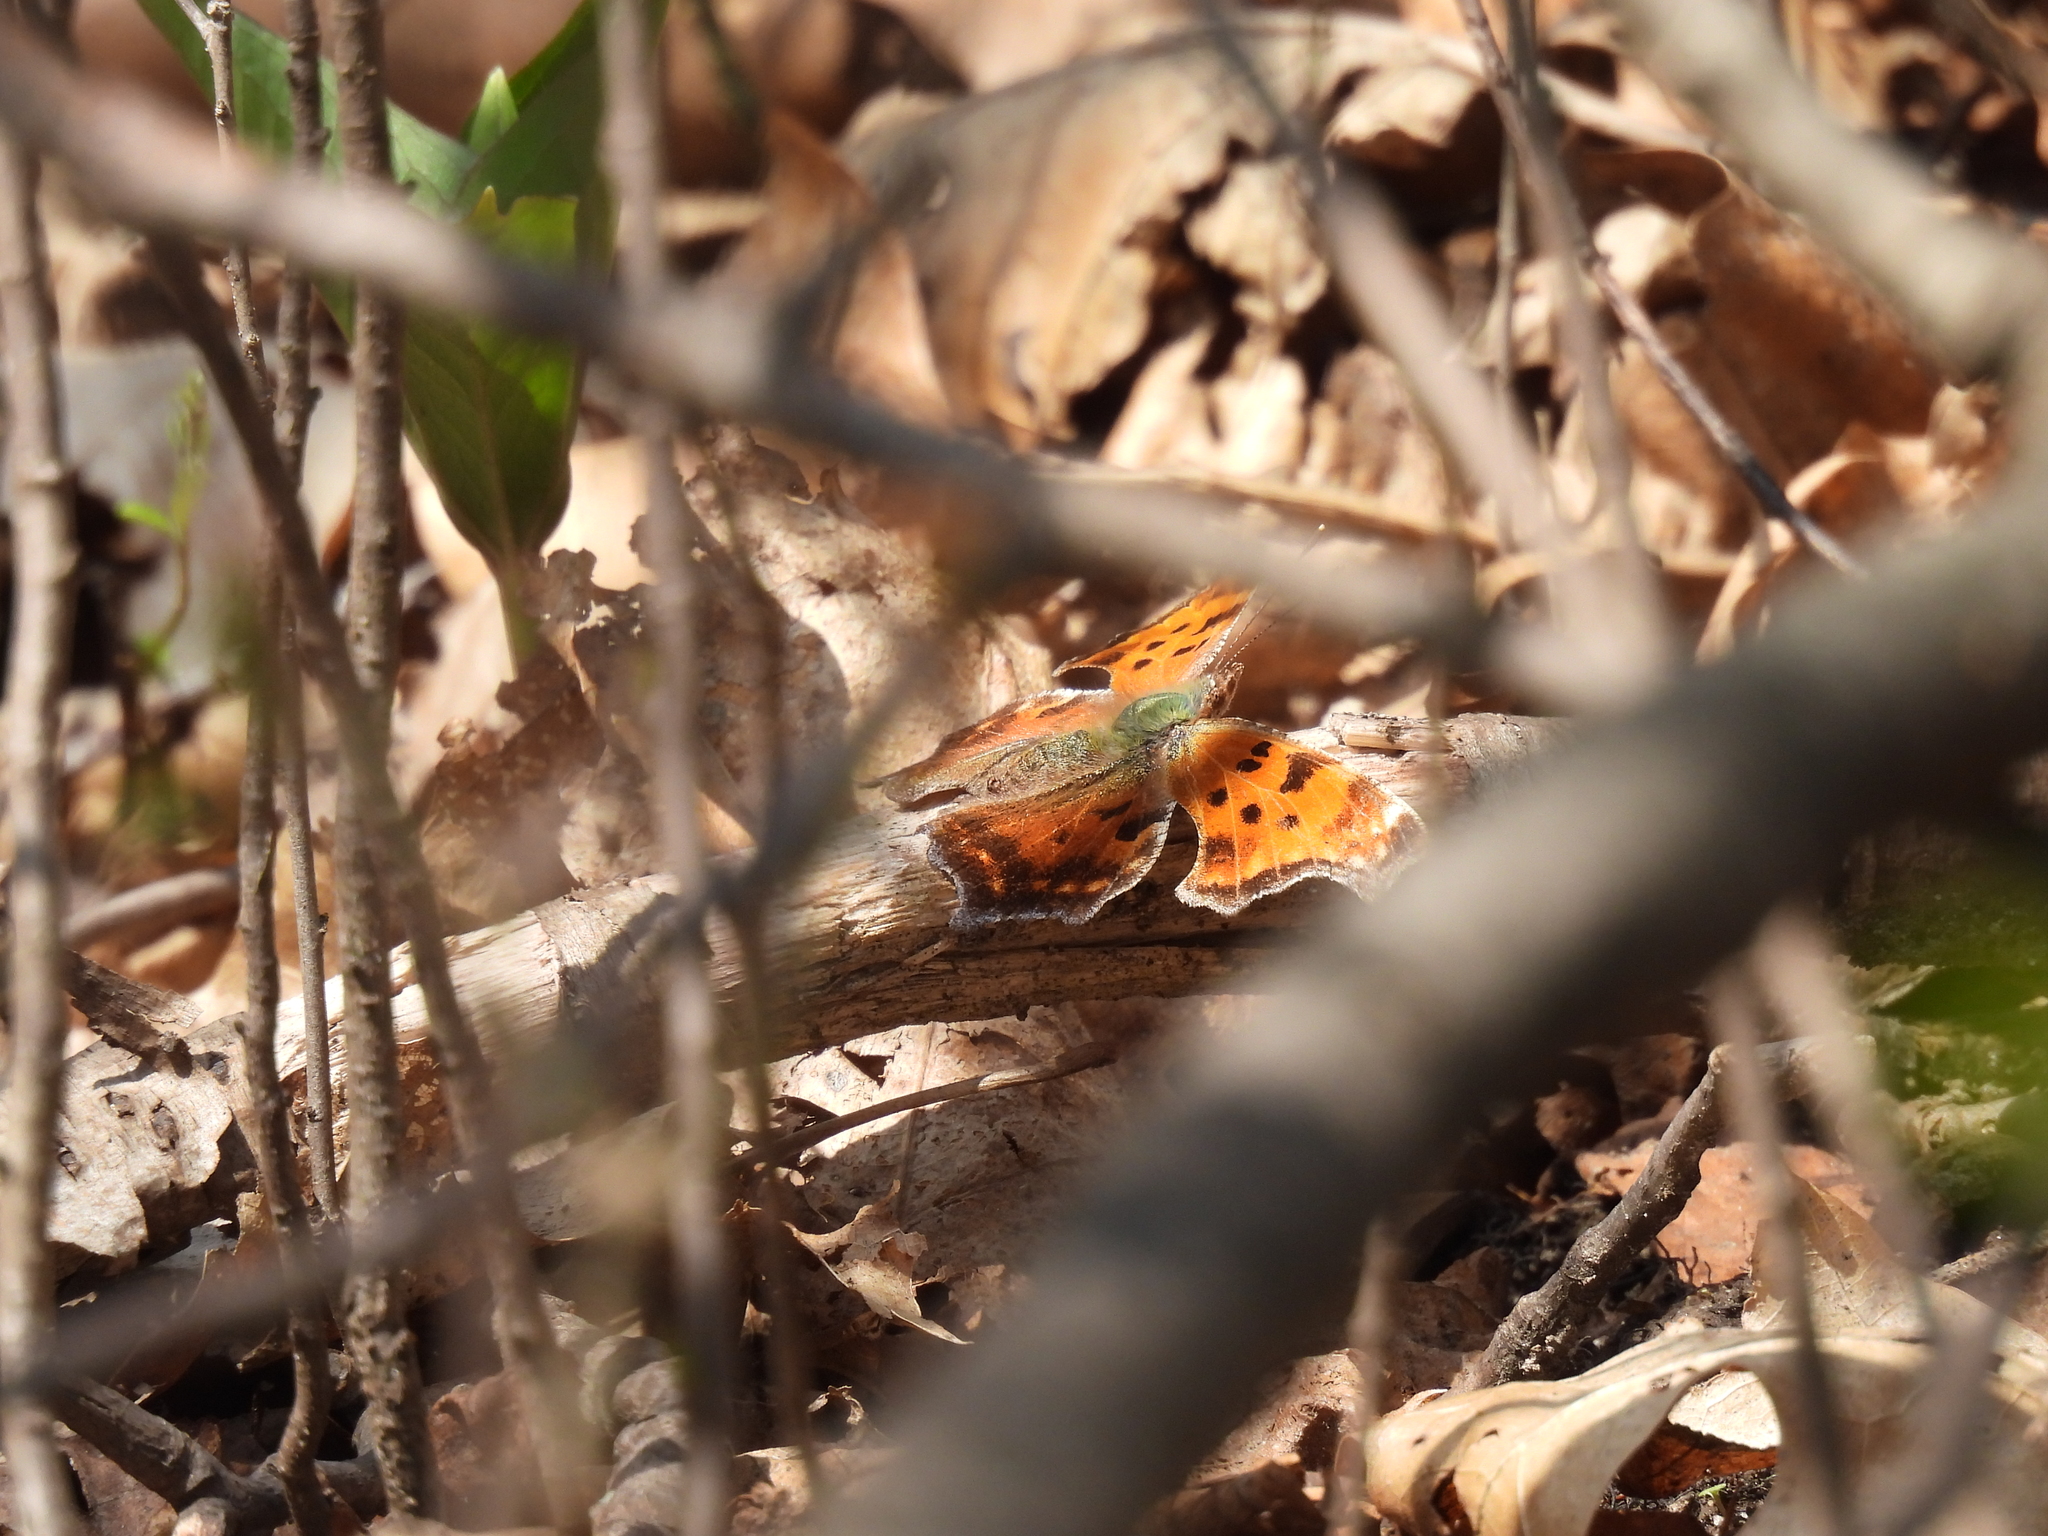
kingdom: Animalia
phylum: Arthropoda
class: Insecta
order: Lepidoptera
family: Nymphalidae
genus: Polygonia
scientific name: Polygonia comma
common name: Eastern comma
